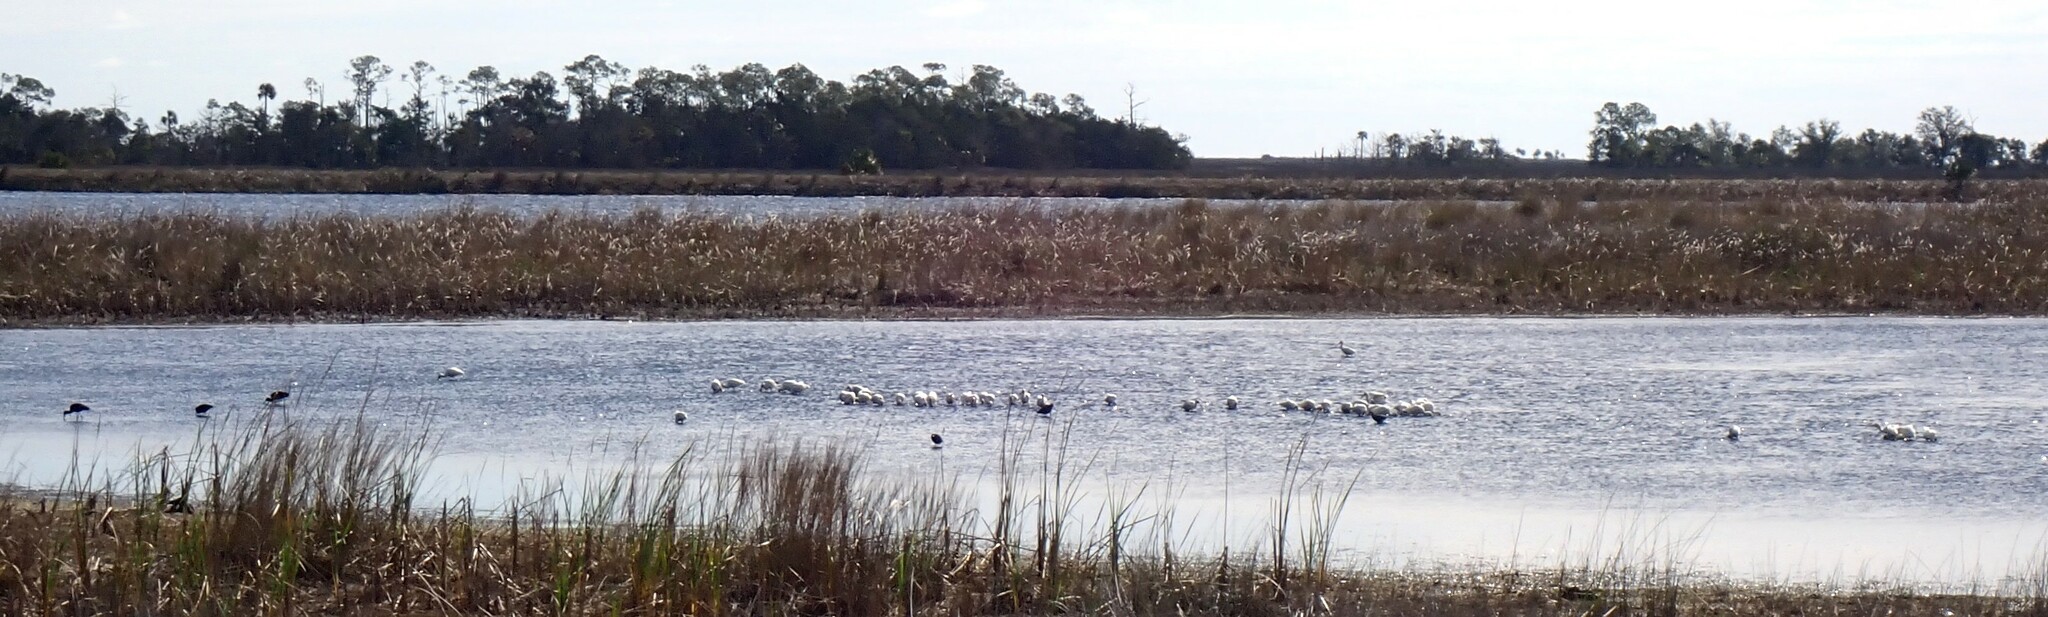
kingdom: Animalia
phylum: Chordata
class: Aves
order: Pelecaniformes
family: Threskiornithidae
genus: Eudocimus
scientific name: Eudocimus albus
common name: White ibis
